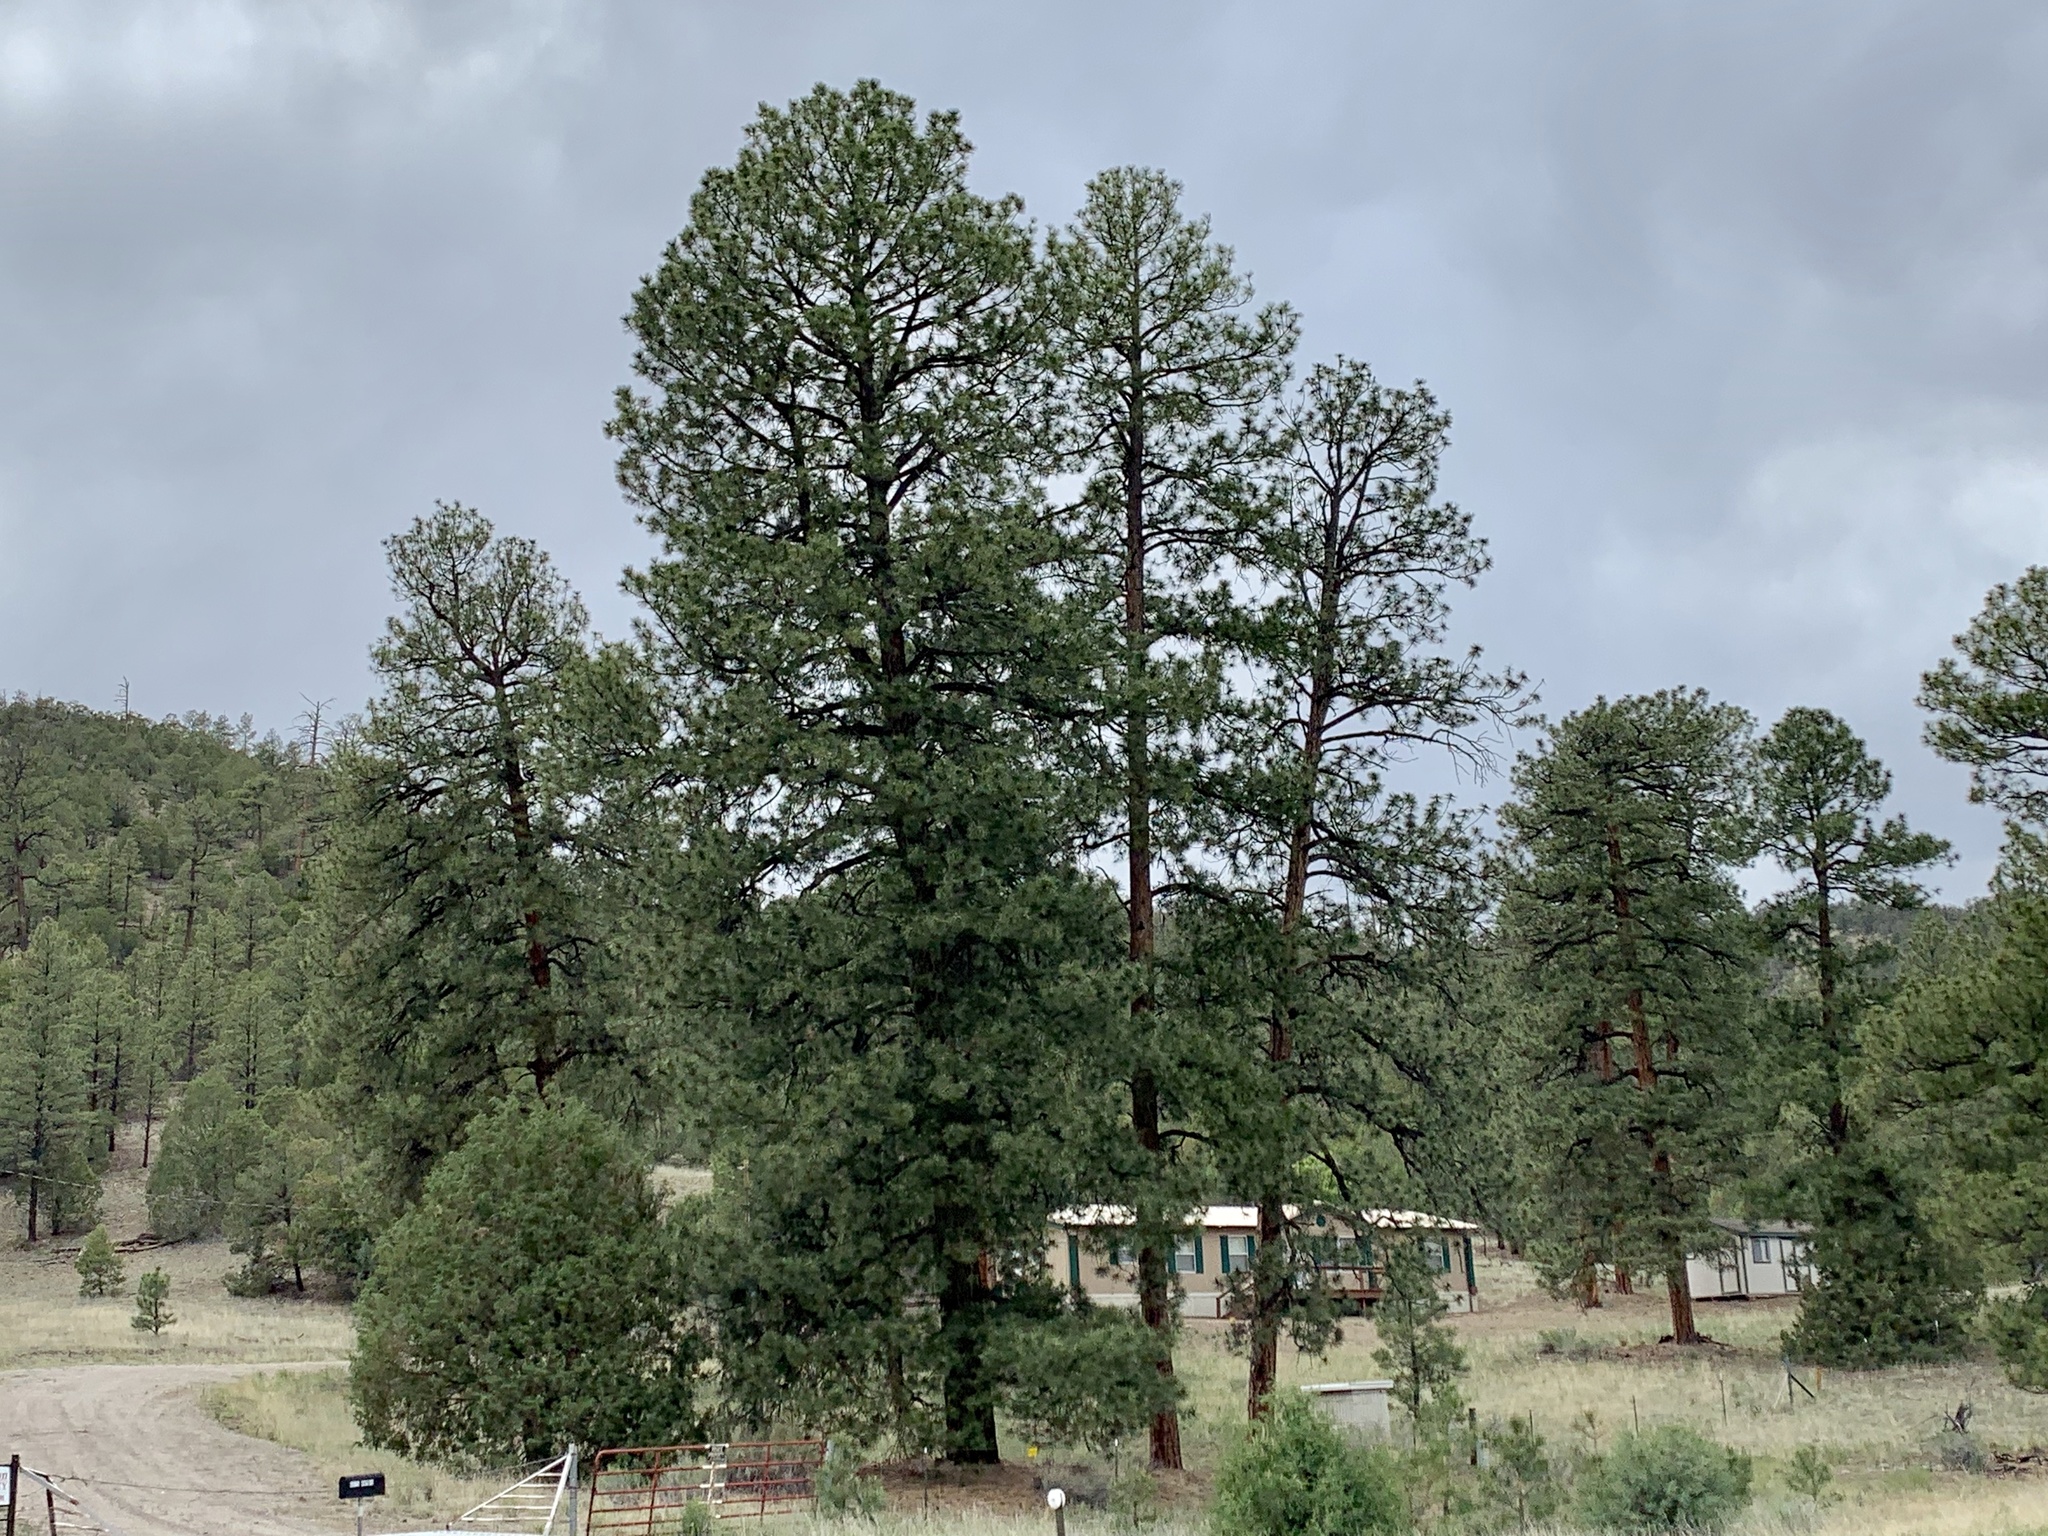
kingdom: Plantae
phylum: Tracheophyta
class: Pinopsida
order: Pinales
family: Pinaceae
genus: Pinus
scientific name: Pinus ponderosa
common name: Western yellow-pine
